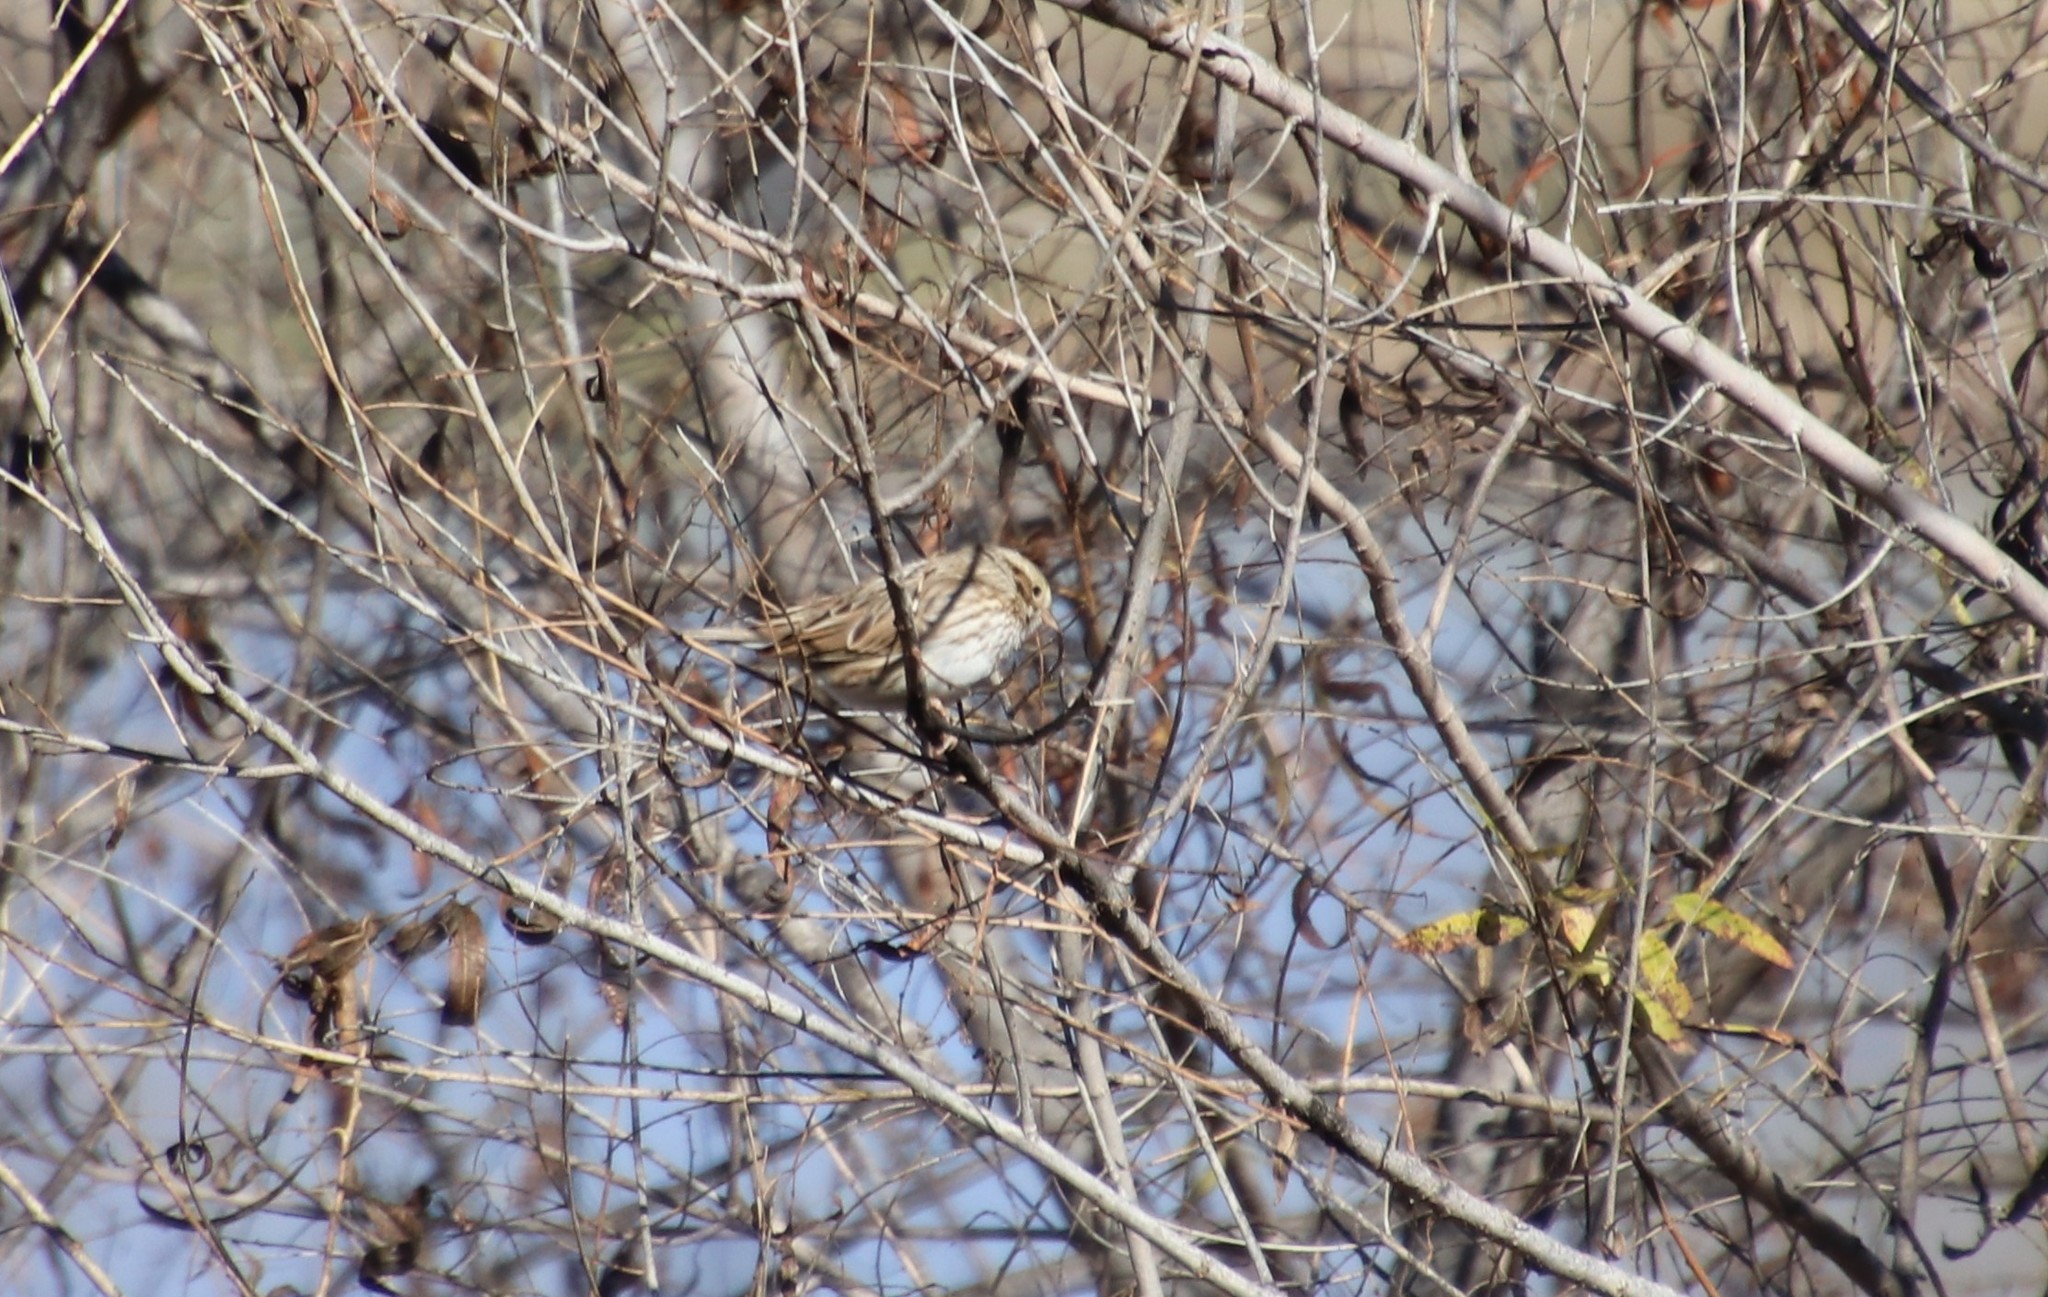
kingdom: Animalia
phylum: Chordata
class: Aves
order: Passeriformes
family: Passerellidae
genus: Passerculus
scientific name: Passerculus sandwichensis
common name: Savannah sparrow
